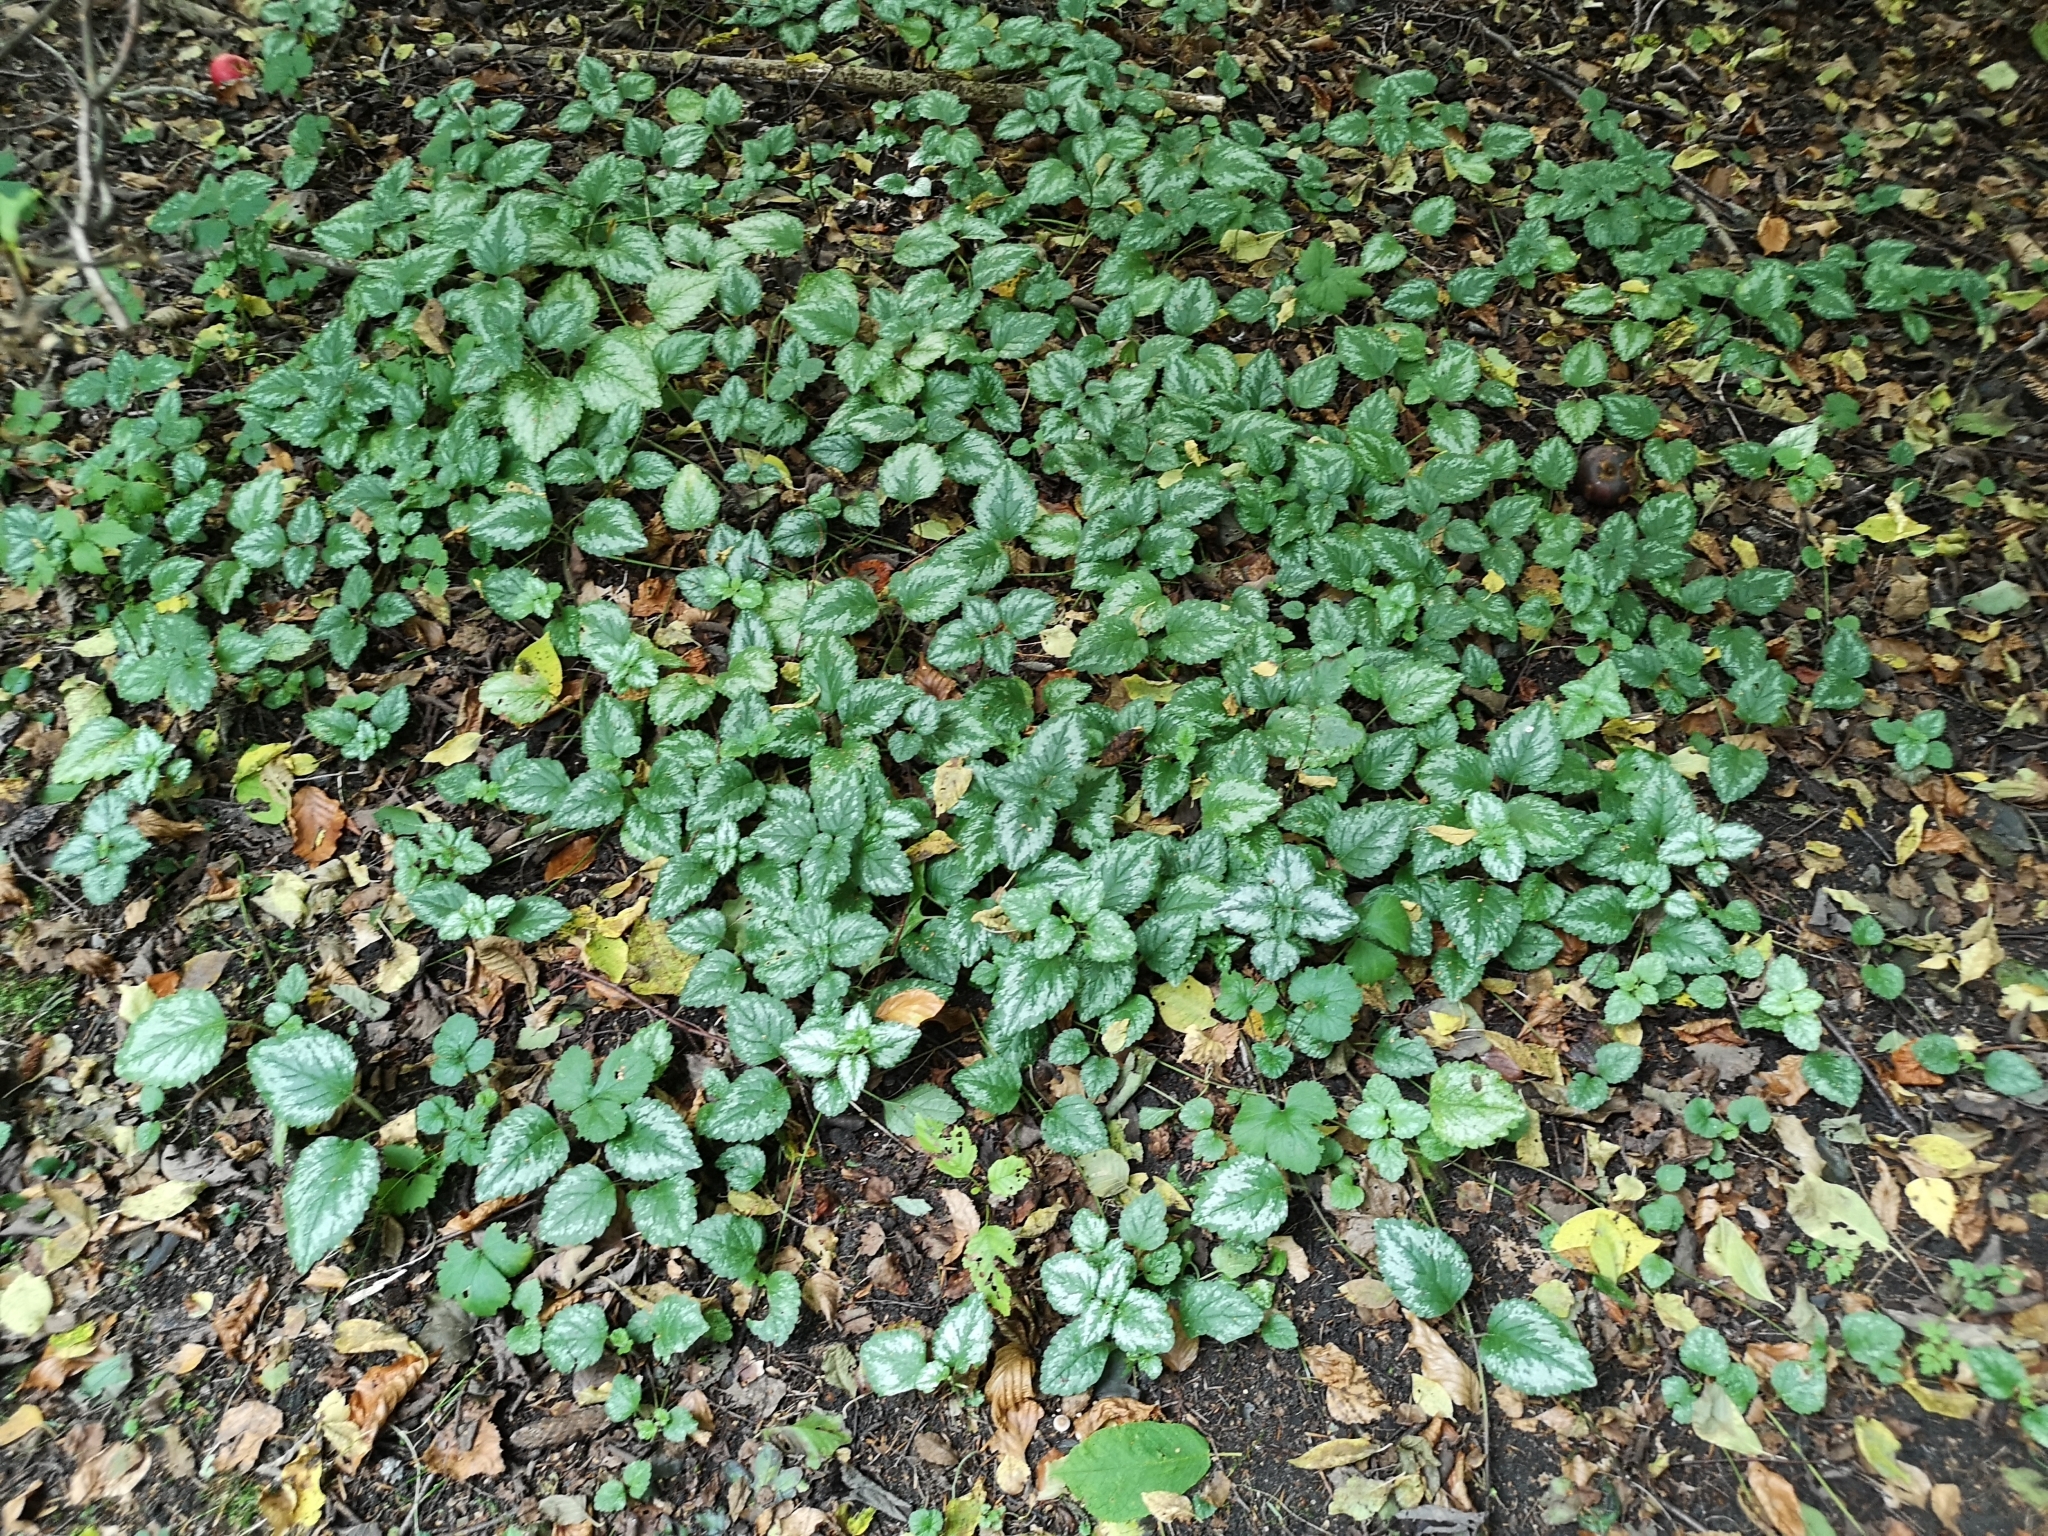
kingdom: Plantae
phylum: Tracheophyta
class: Magnoliopsida
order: Lamiales
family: Lamiaceae
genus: Lamium
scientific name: Lamium galeobdolon
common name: Yellow archangel
